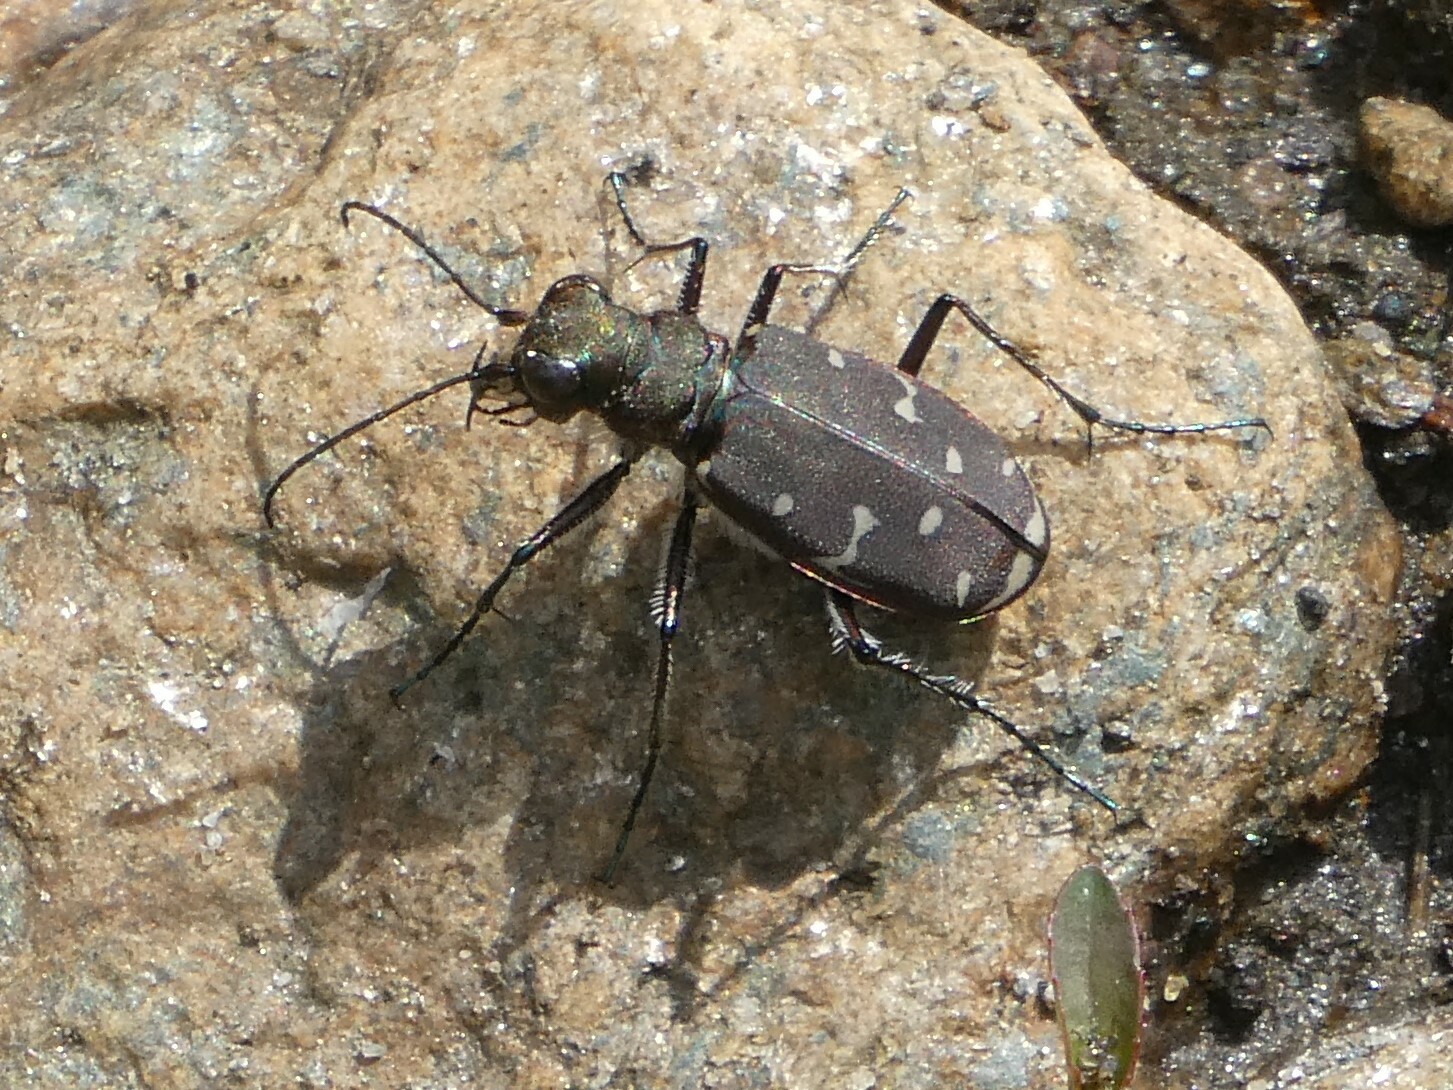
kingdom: Animalia
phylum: Arthropoda
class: Insecta
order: Coleoptera
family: Carabidae
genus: Cicindela
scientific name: Cicindela duodecimguttata
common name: Twelve-spotted tiger beetle
